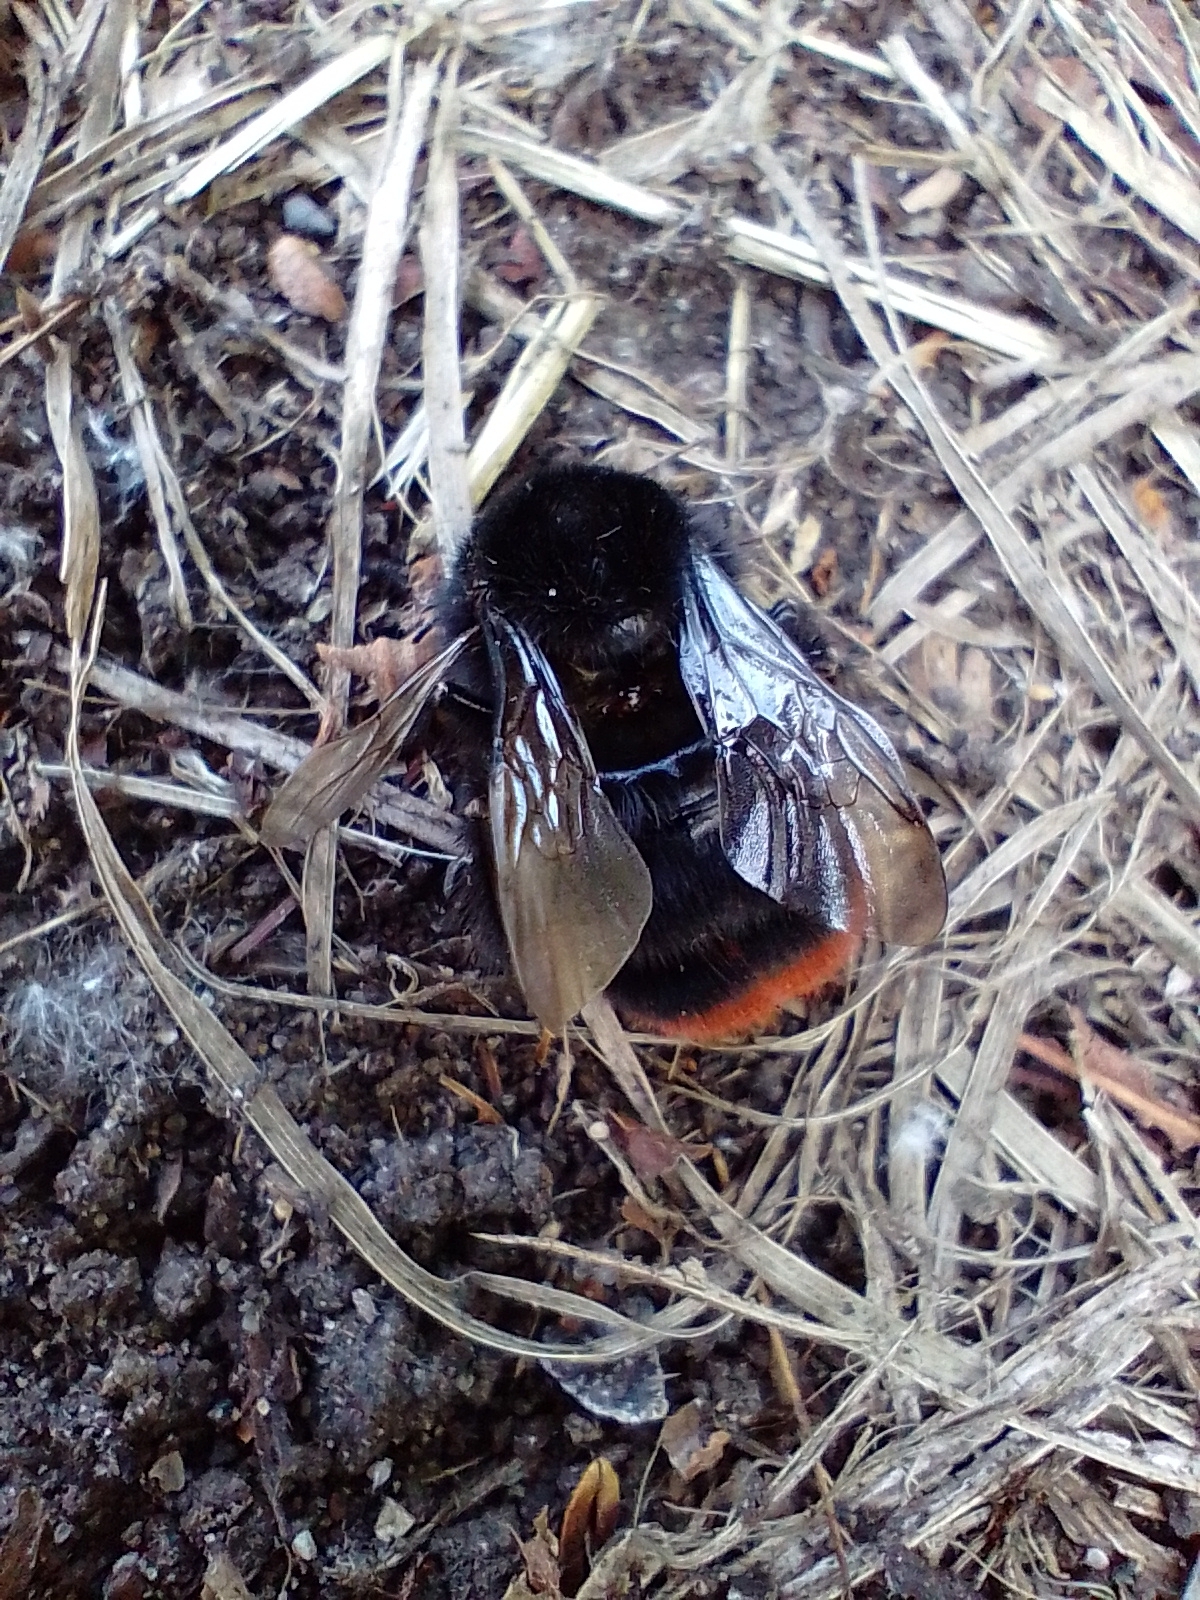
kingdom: Animalia
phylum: Arthropoda
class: Insecta
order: Hymenoptera
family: Apidae
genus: Bombus
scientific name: Bombus lapidarius
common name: Large red-tailed humble-bee
